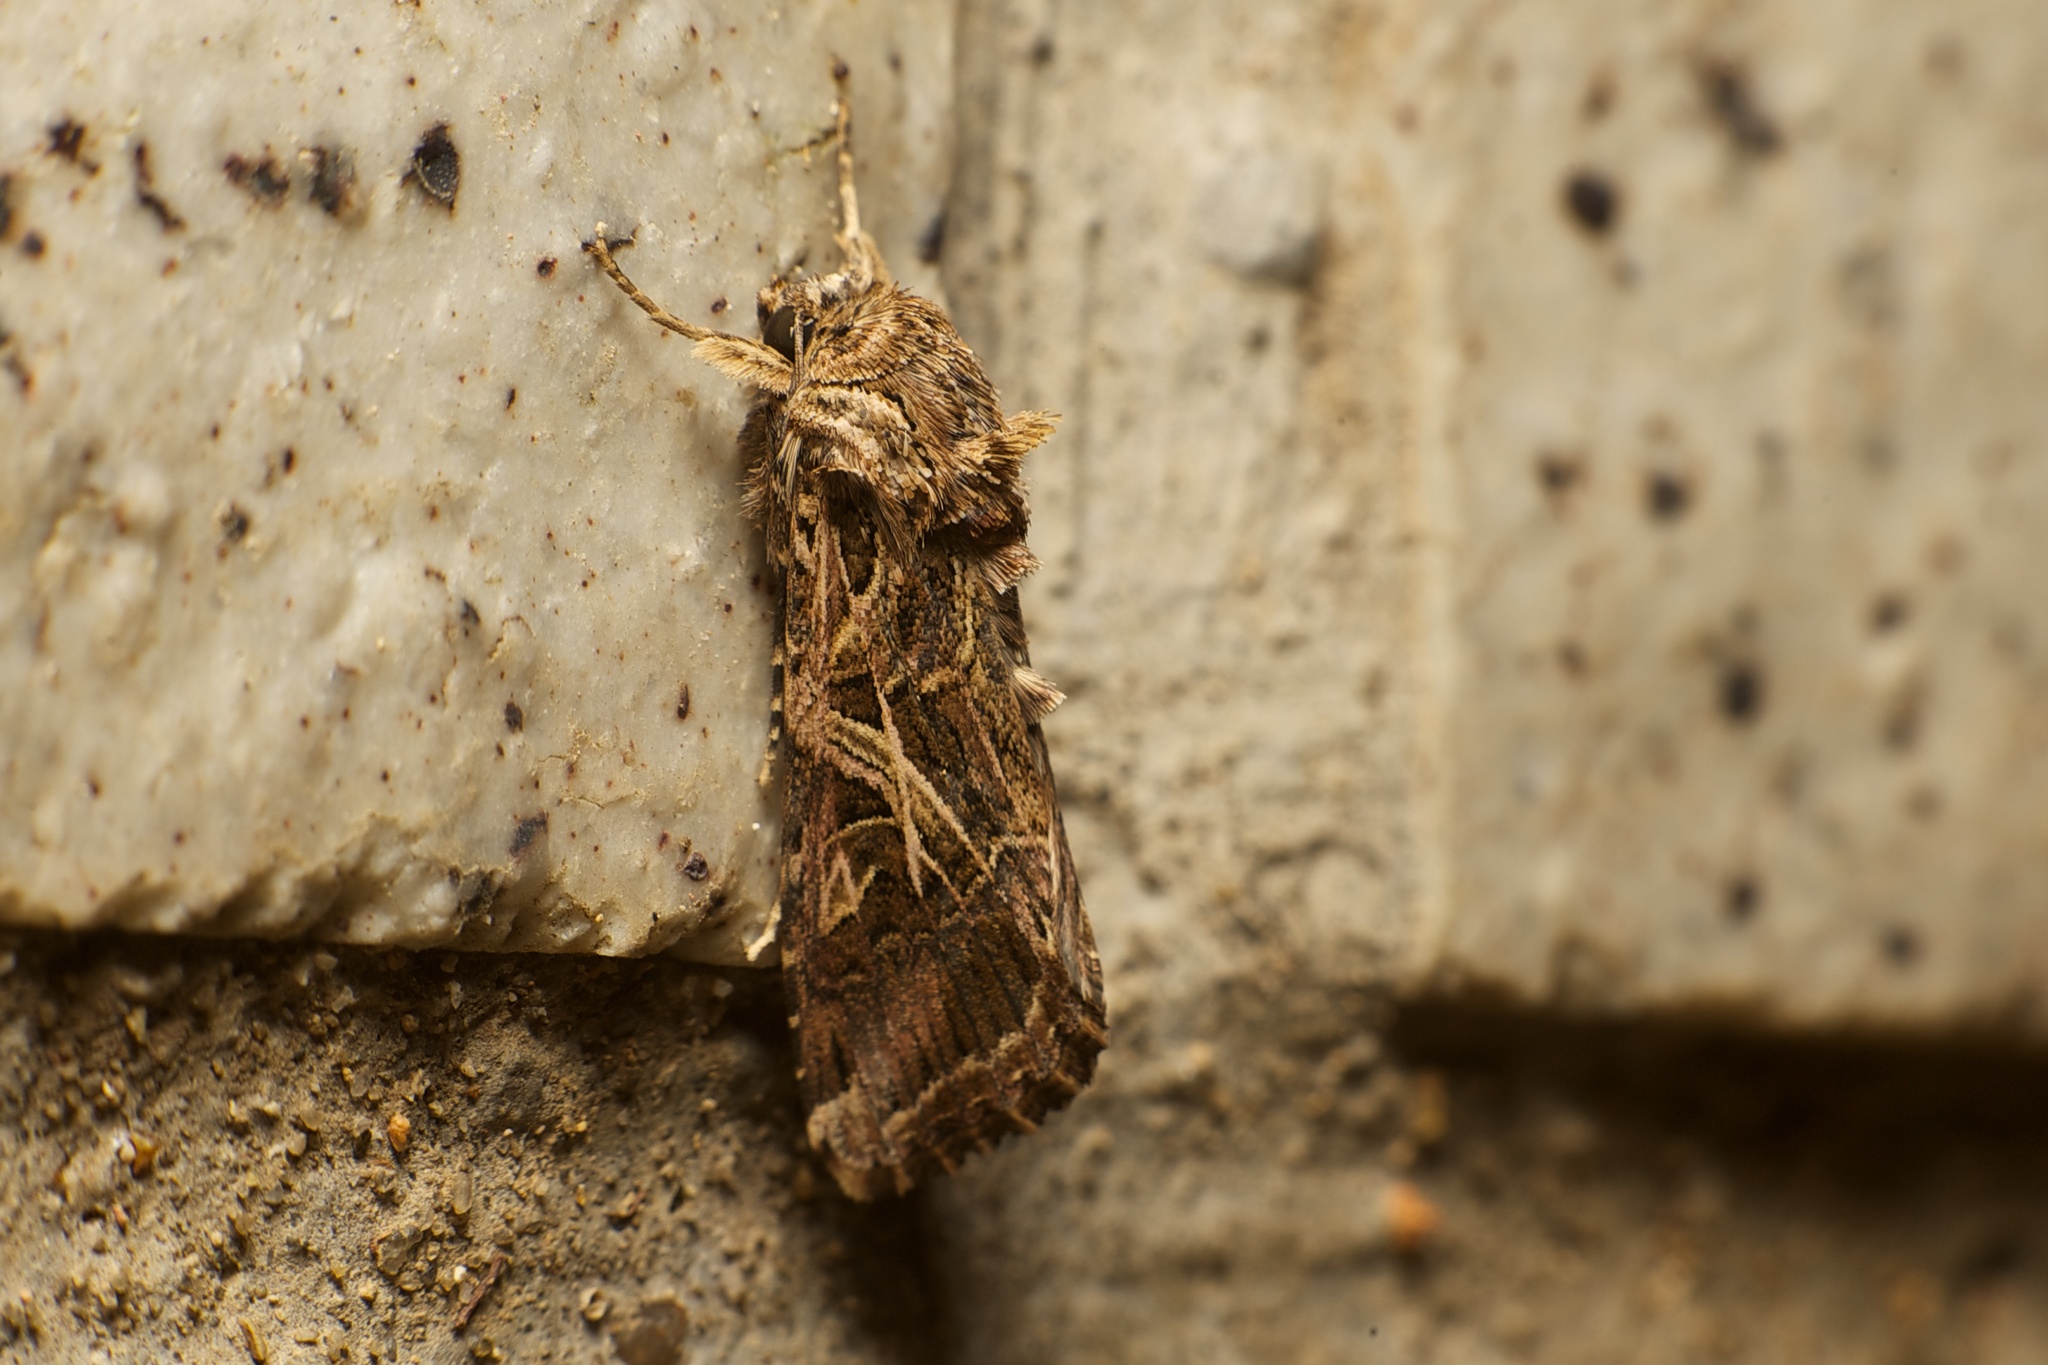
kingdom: Animalia
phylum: Arthropoda
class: Insecta
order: Lepidoptera
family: Noctuidae
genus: Spodoptera
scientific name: Spodoptera litura
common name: Asian cotton leafworm
